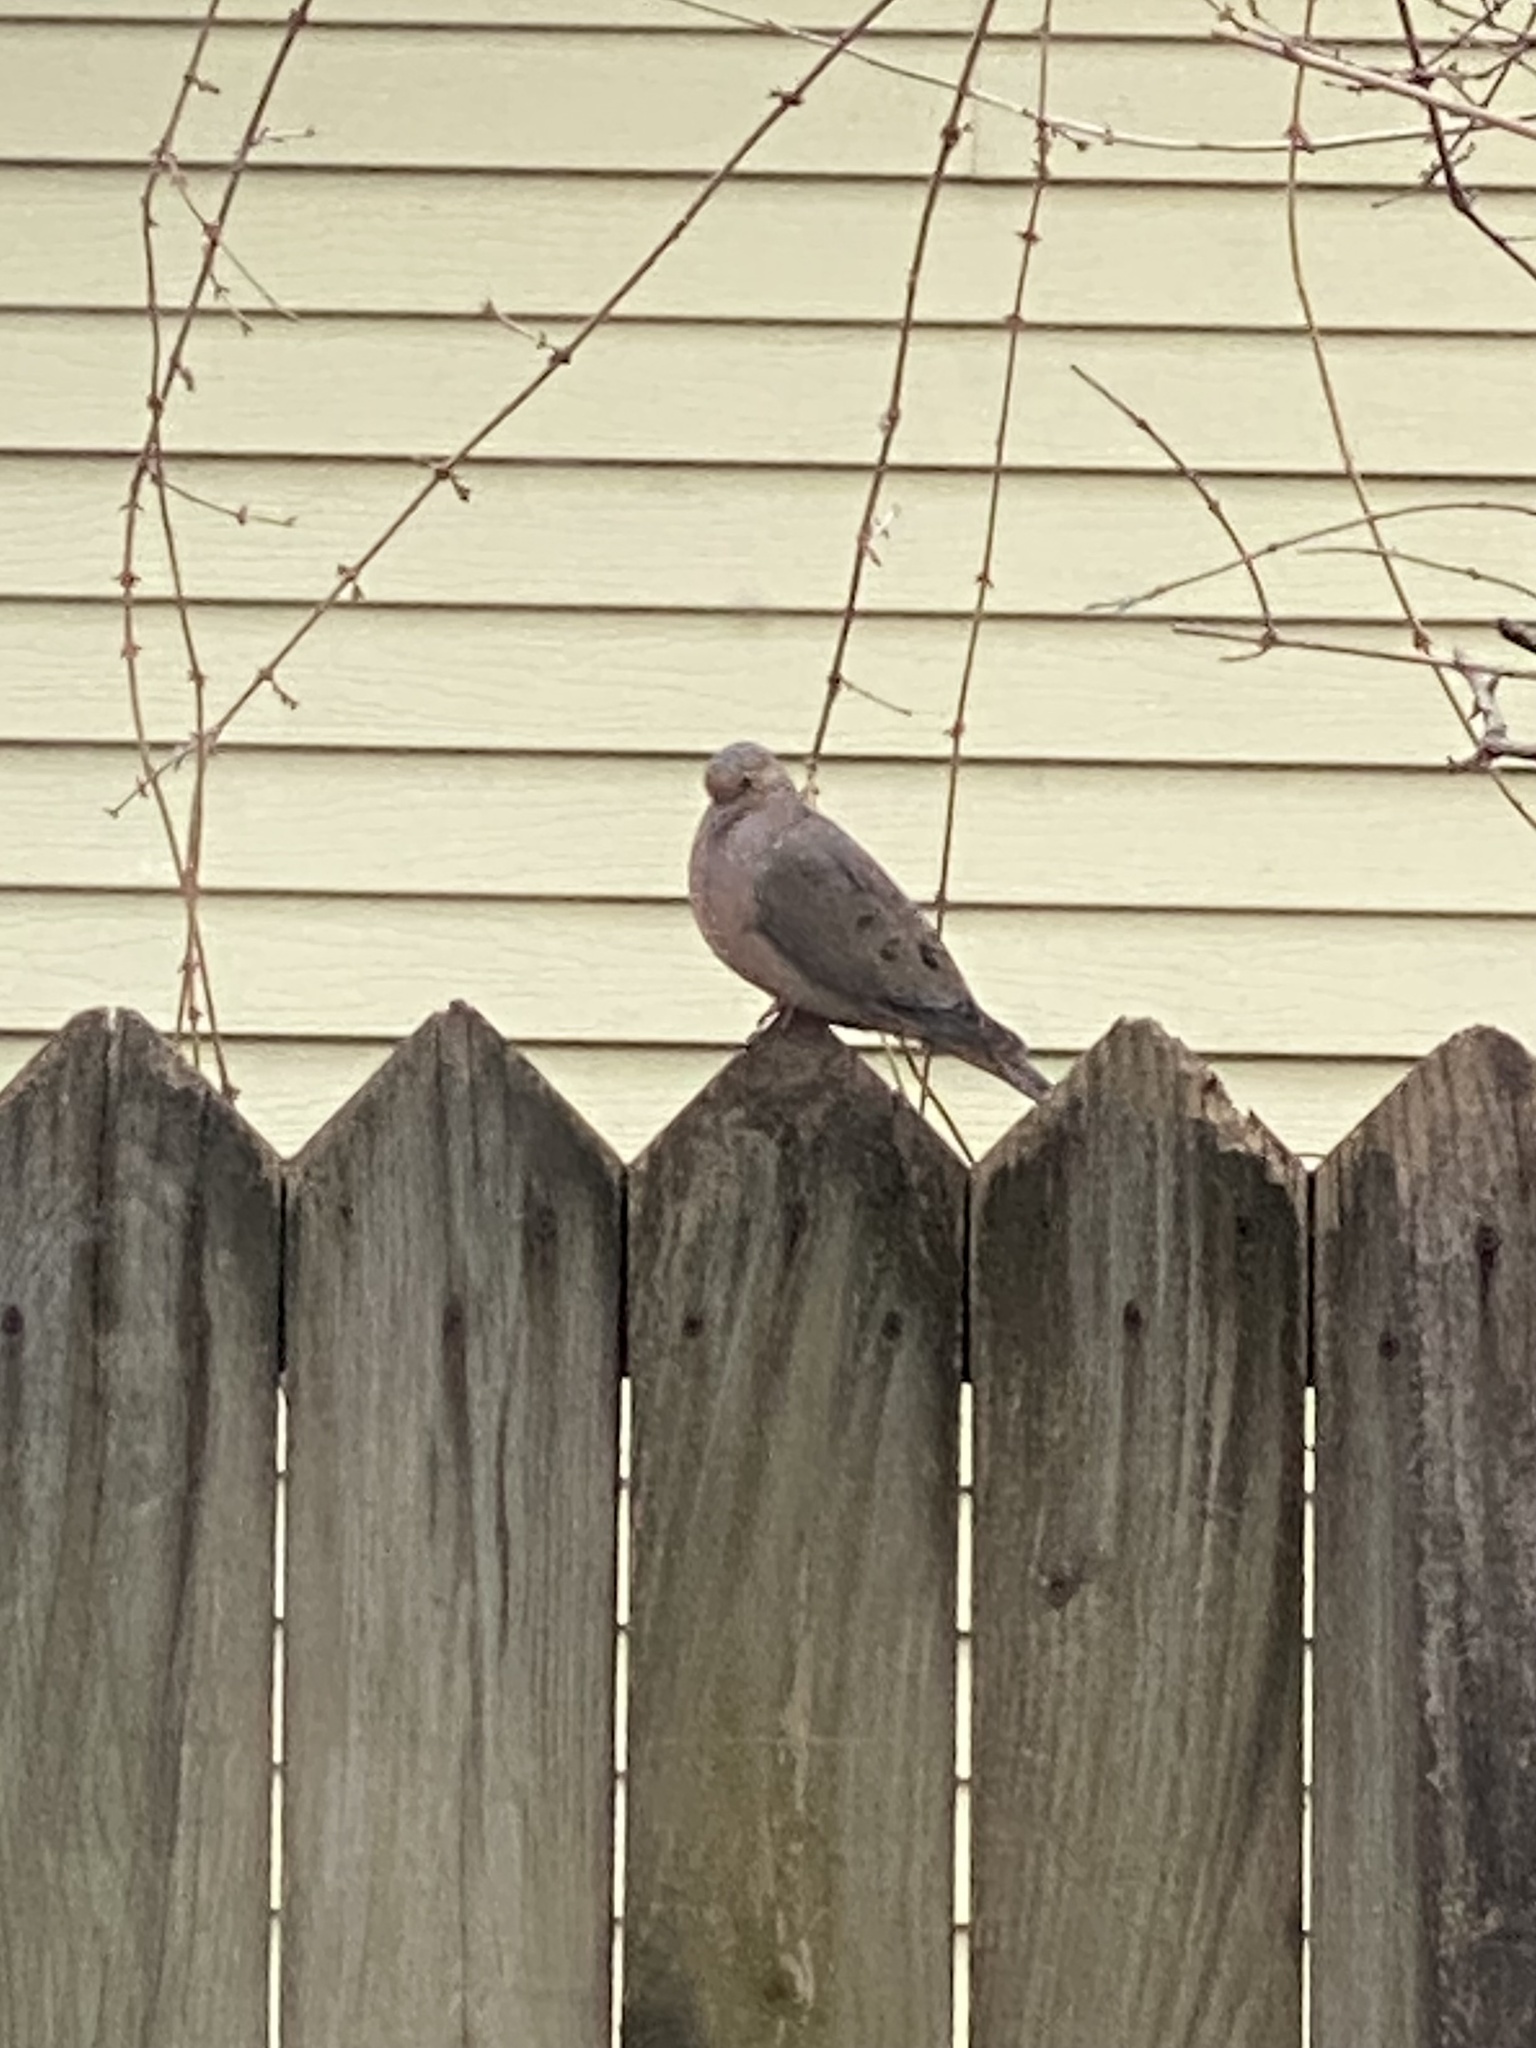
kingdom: Animalia
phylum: Chordata
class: Aves
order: Columbiformes
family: Columbidae
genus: Zenaida
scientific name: Zenaida macroura
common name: Mourning dove
